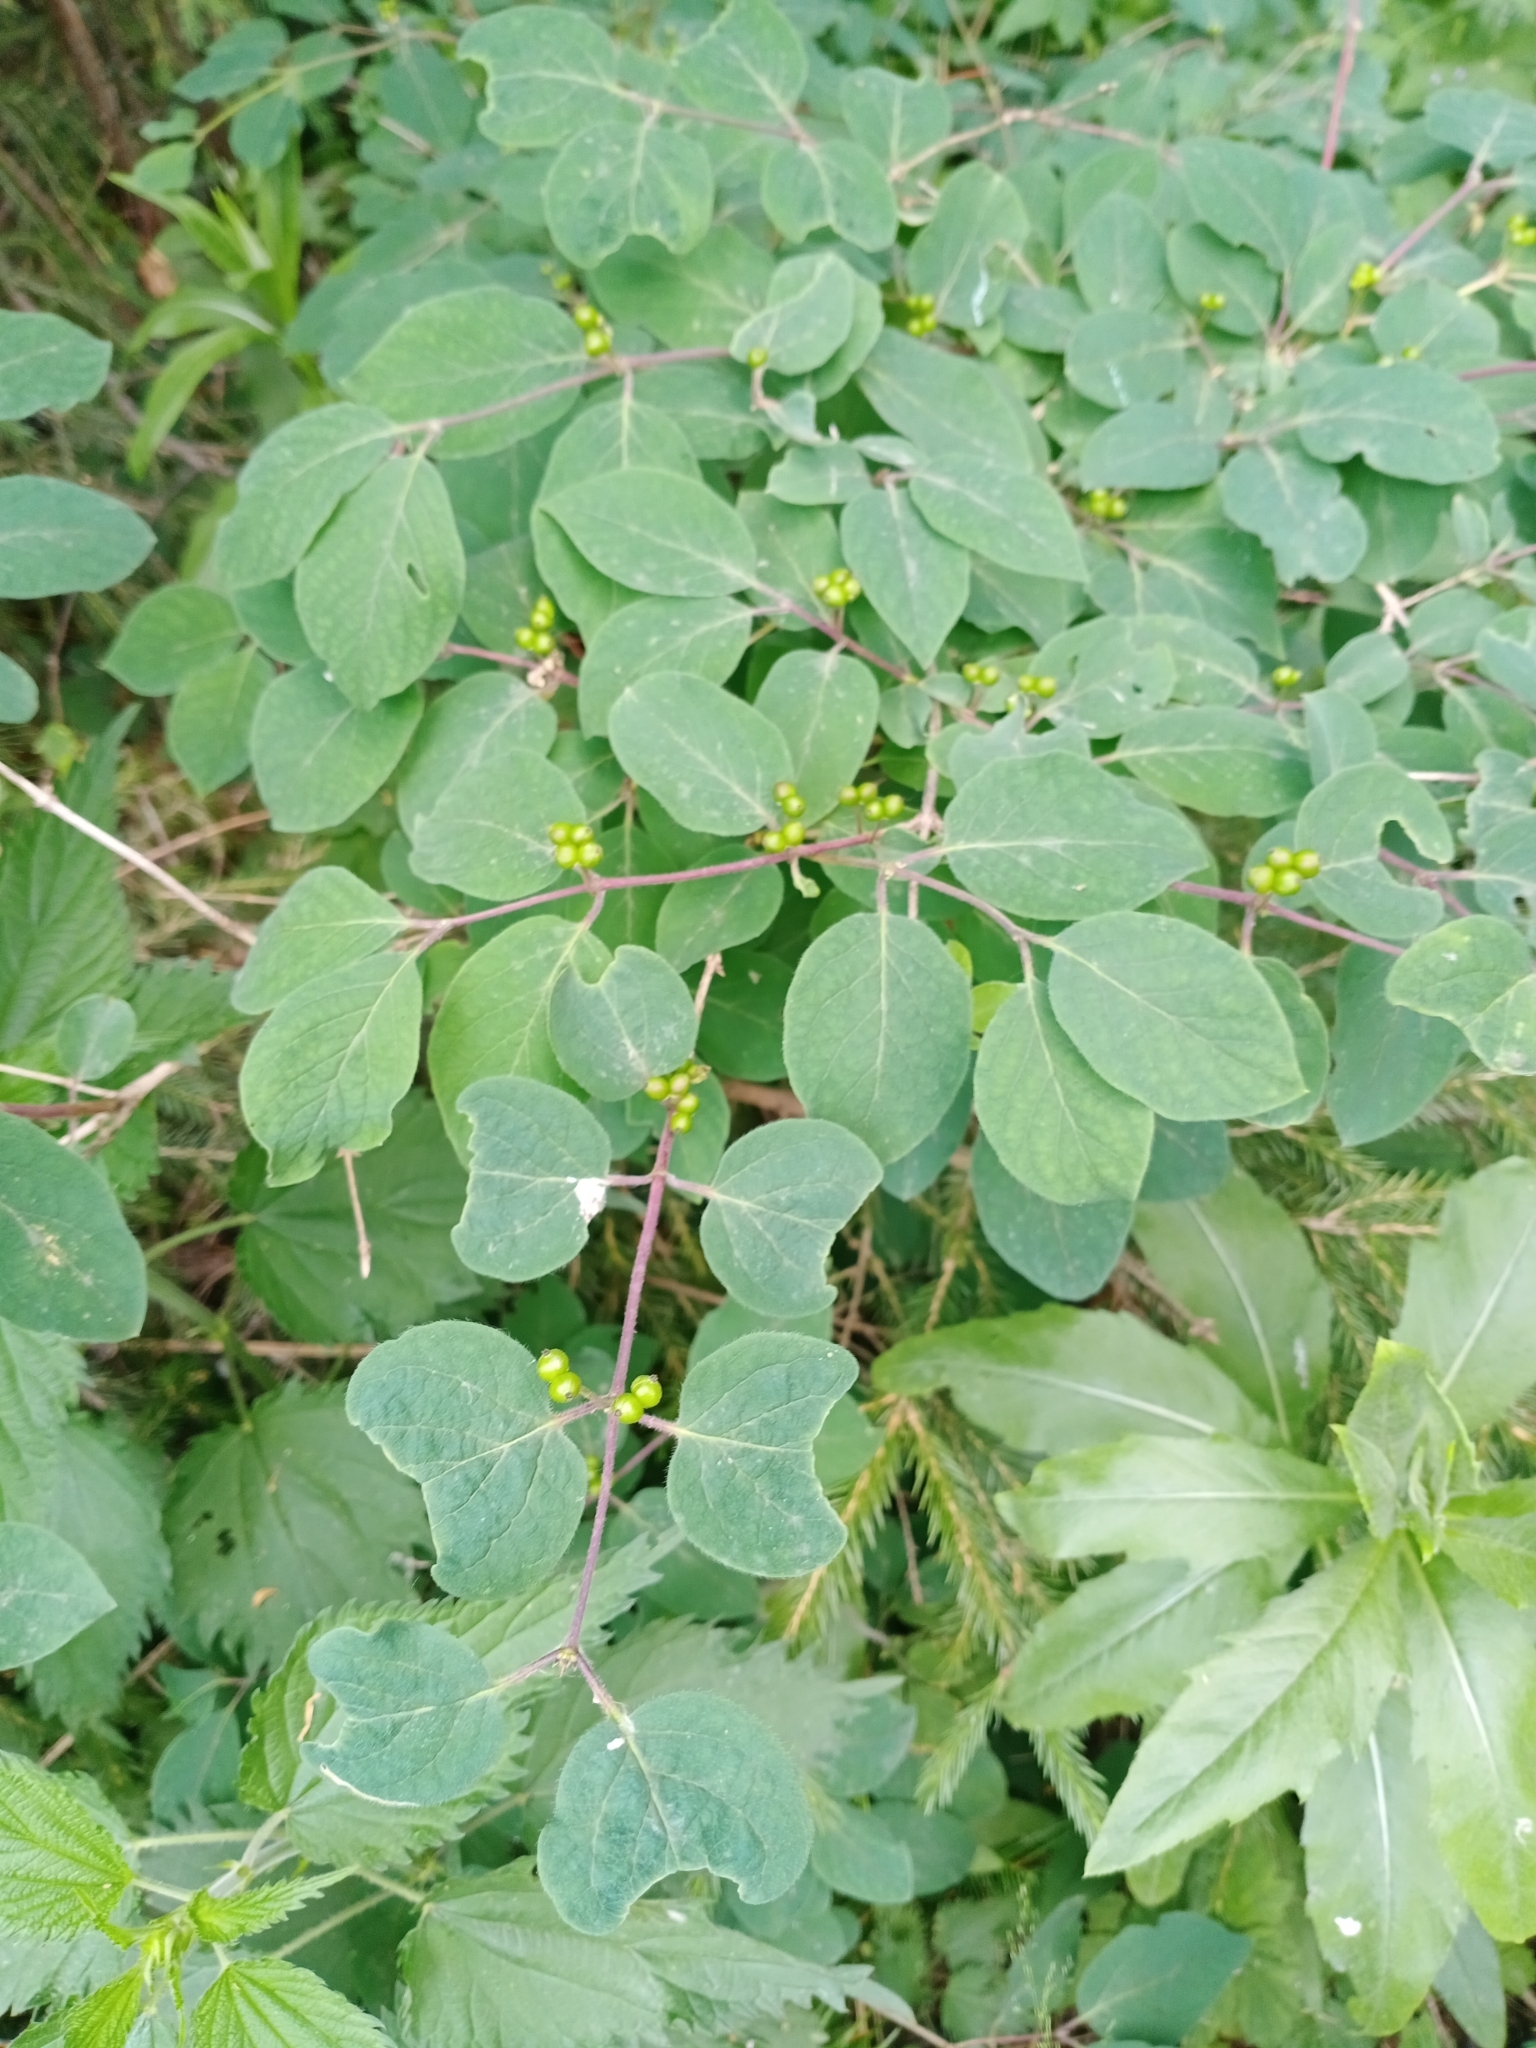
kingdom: Plantae
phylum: Tracheophyta
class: Magnoliopsida
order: Dipsacales
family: Caprifoliaceae
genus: Lonicera
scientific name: Lonicera xylosteum
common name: Fly honeysuckle
